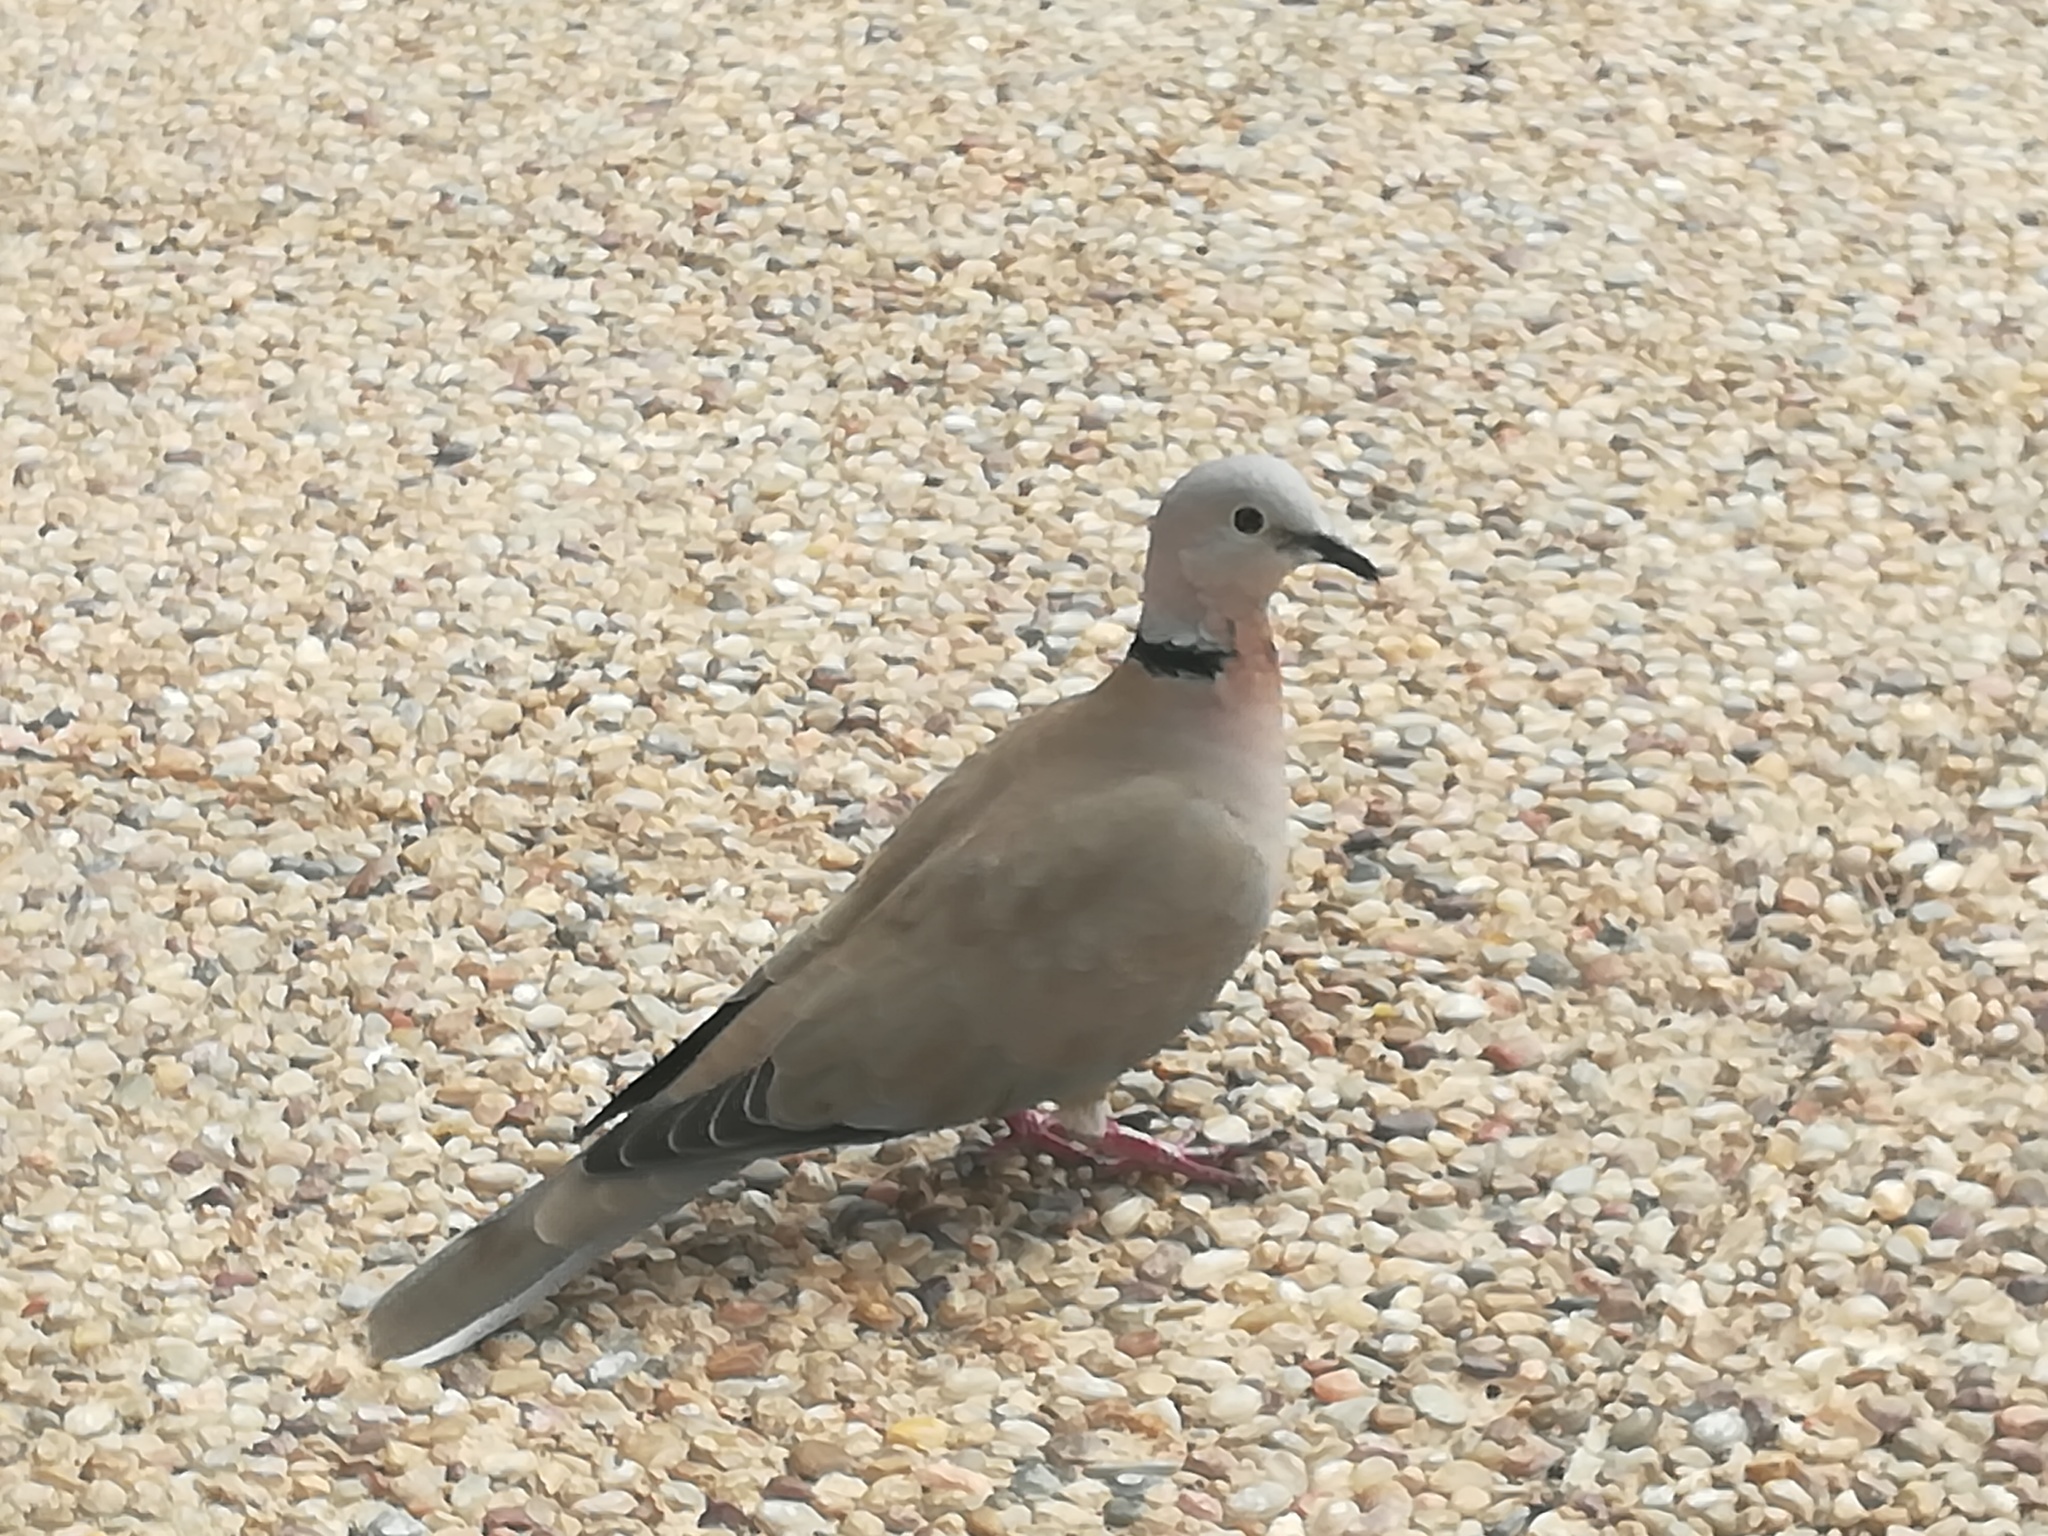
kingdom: Animalia
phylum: Chordata
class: Aves
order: Columbiformes
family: Columbidae
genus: Streptopelia
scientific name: Streptopelia decaocto
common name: Eurasian collared dove
